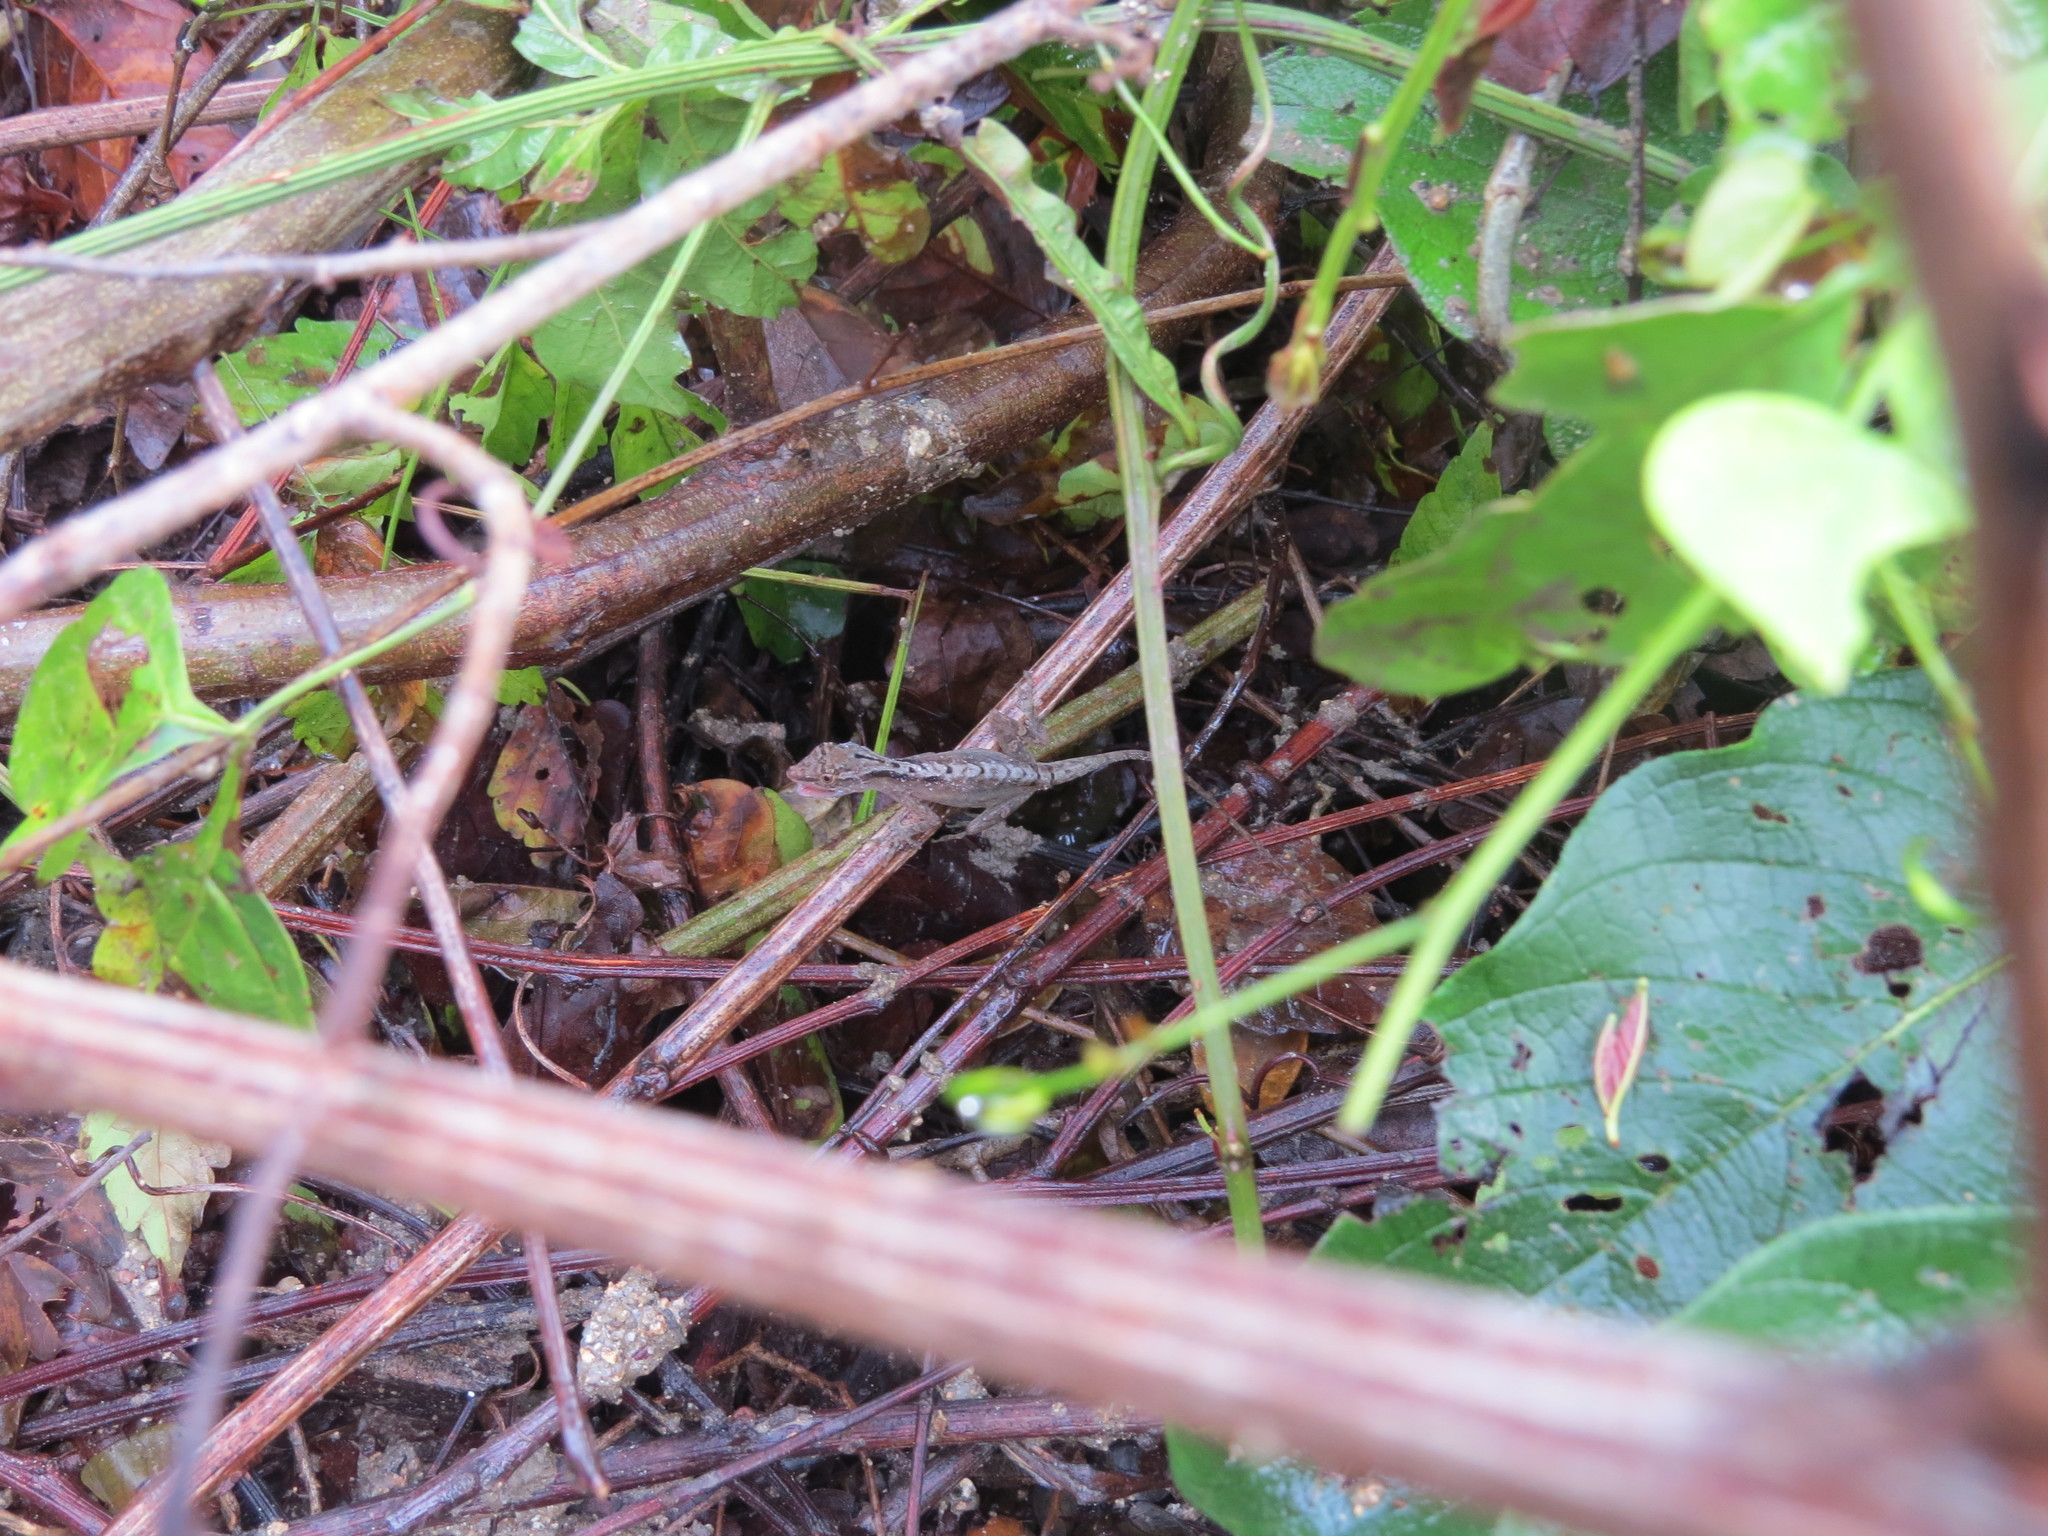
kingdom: Animalia
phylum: Chordata
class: Squamata
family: Dactyloidae
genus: Anolis
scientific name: Anolis gaigei
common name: Gaige’s anole
